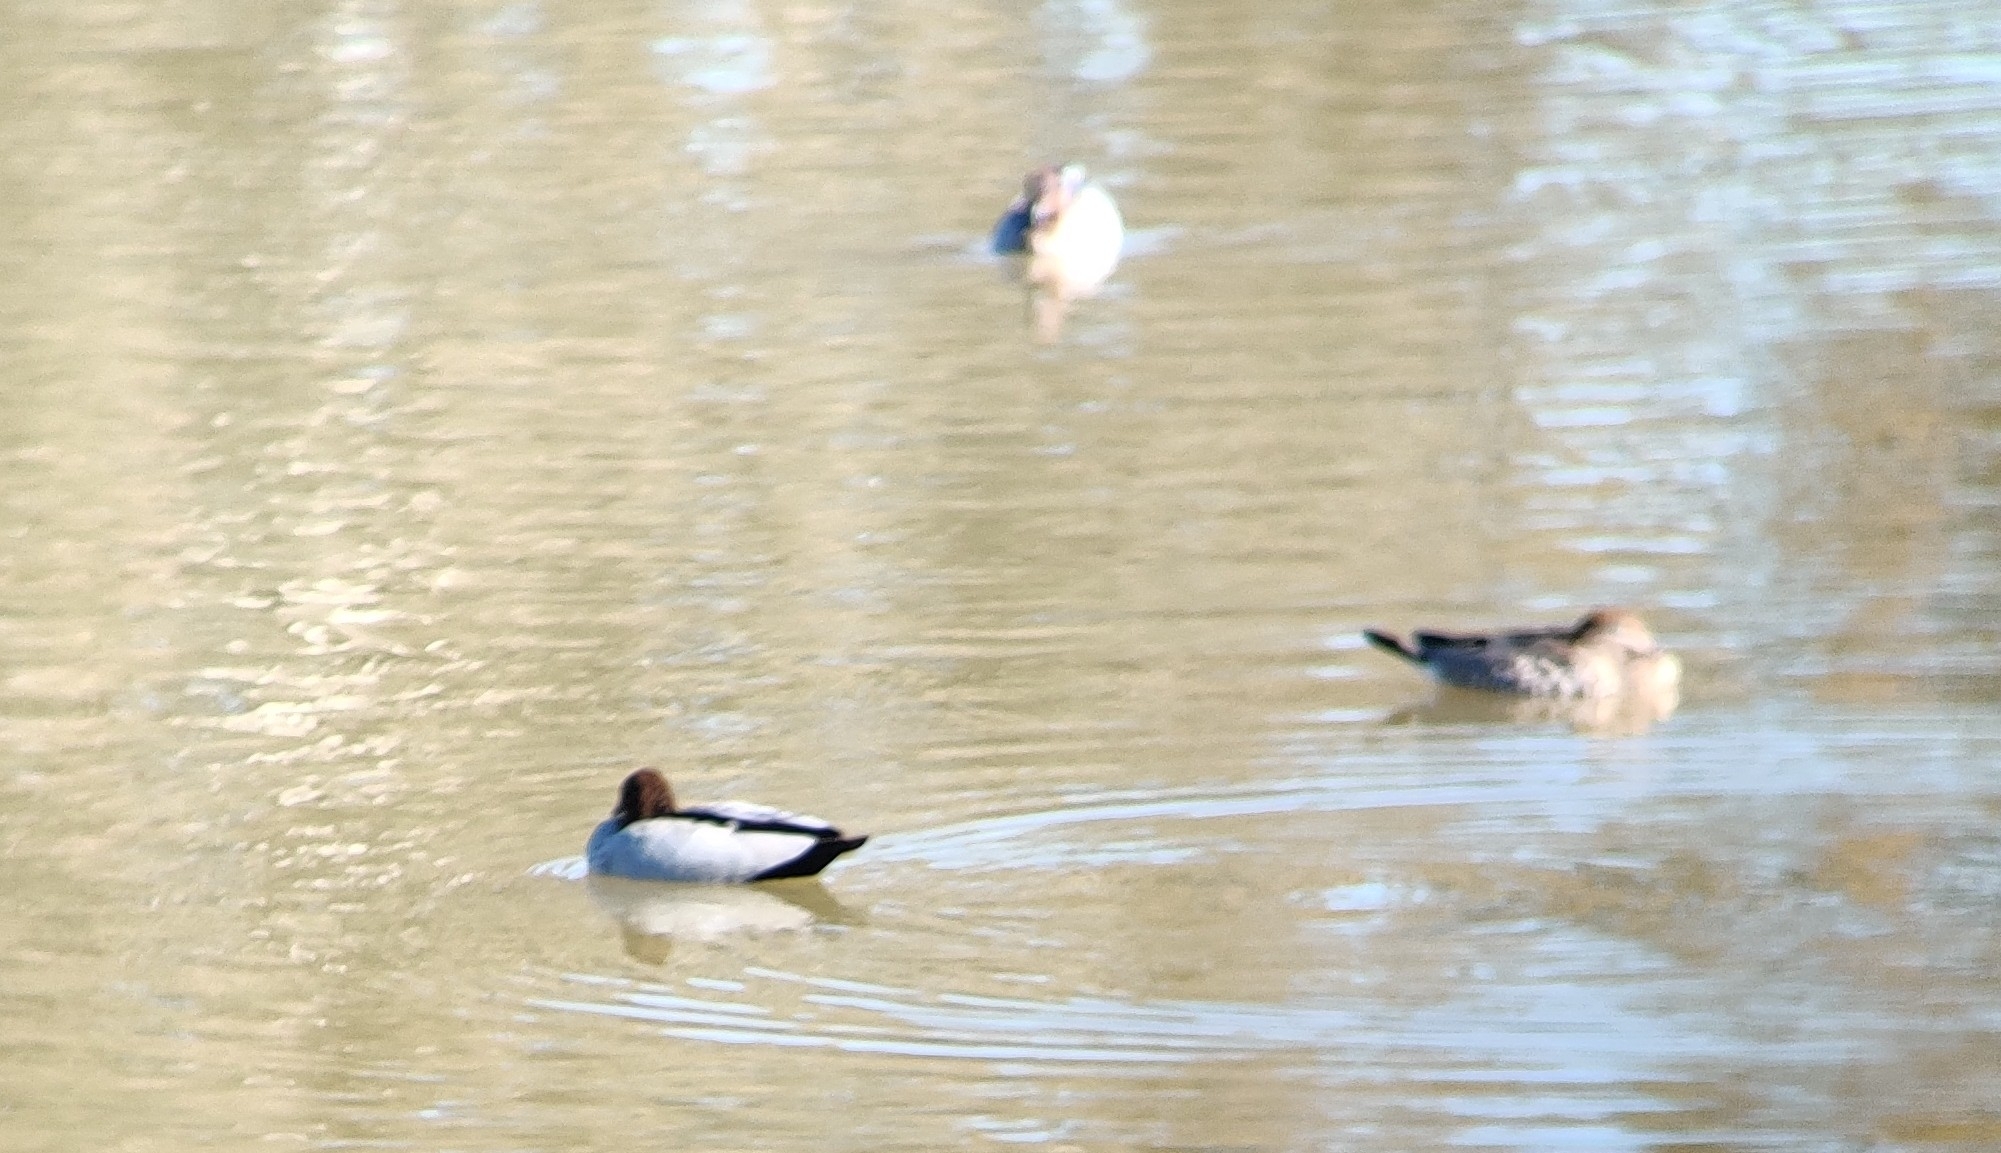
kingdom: Animalia
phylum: Chordata
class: Aves
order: Anseriformes
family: Anatidae
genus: Chenonetta
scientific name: Chenonetta jubata
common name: Maned duck
